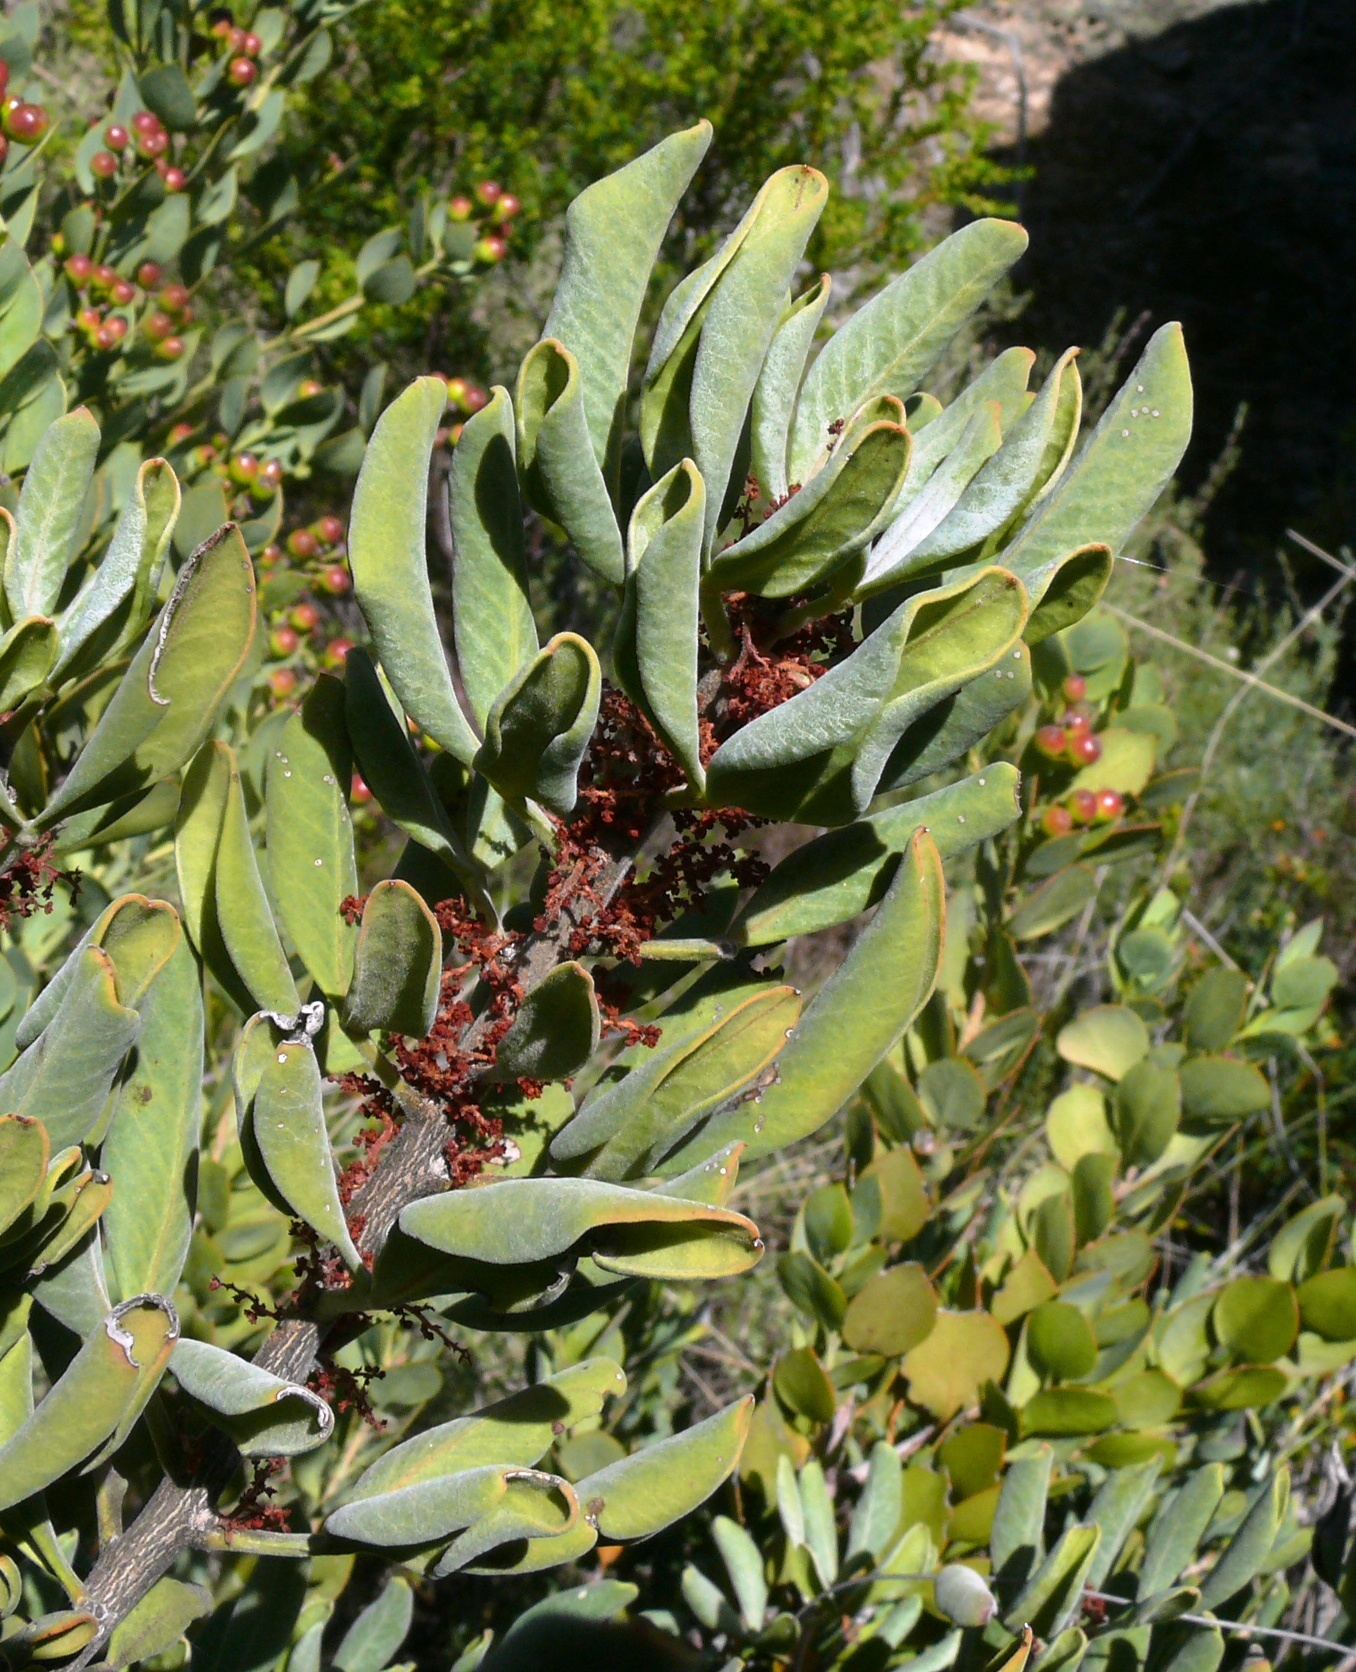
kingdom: Plantae
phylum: Tracheophyta
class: Magnoliopsida
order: Sapindales
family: Anacardiaceae
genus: Searsia
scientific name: Searsia scytophylla
